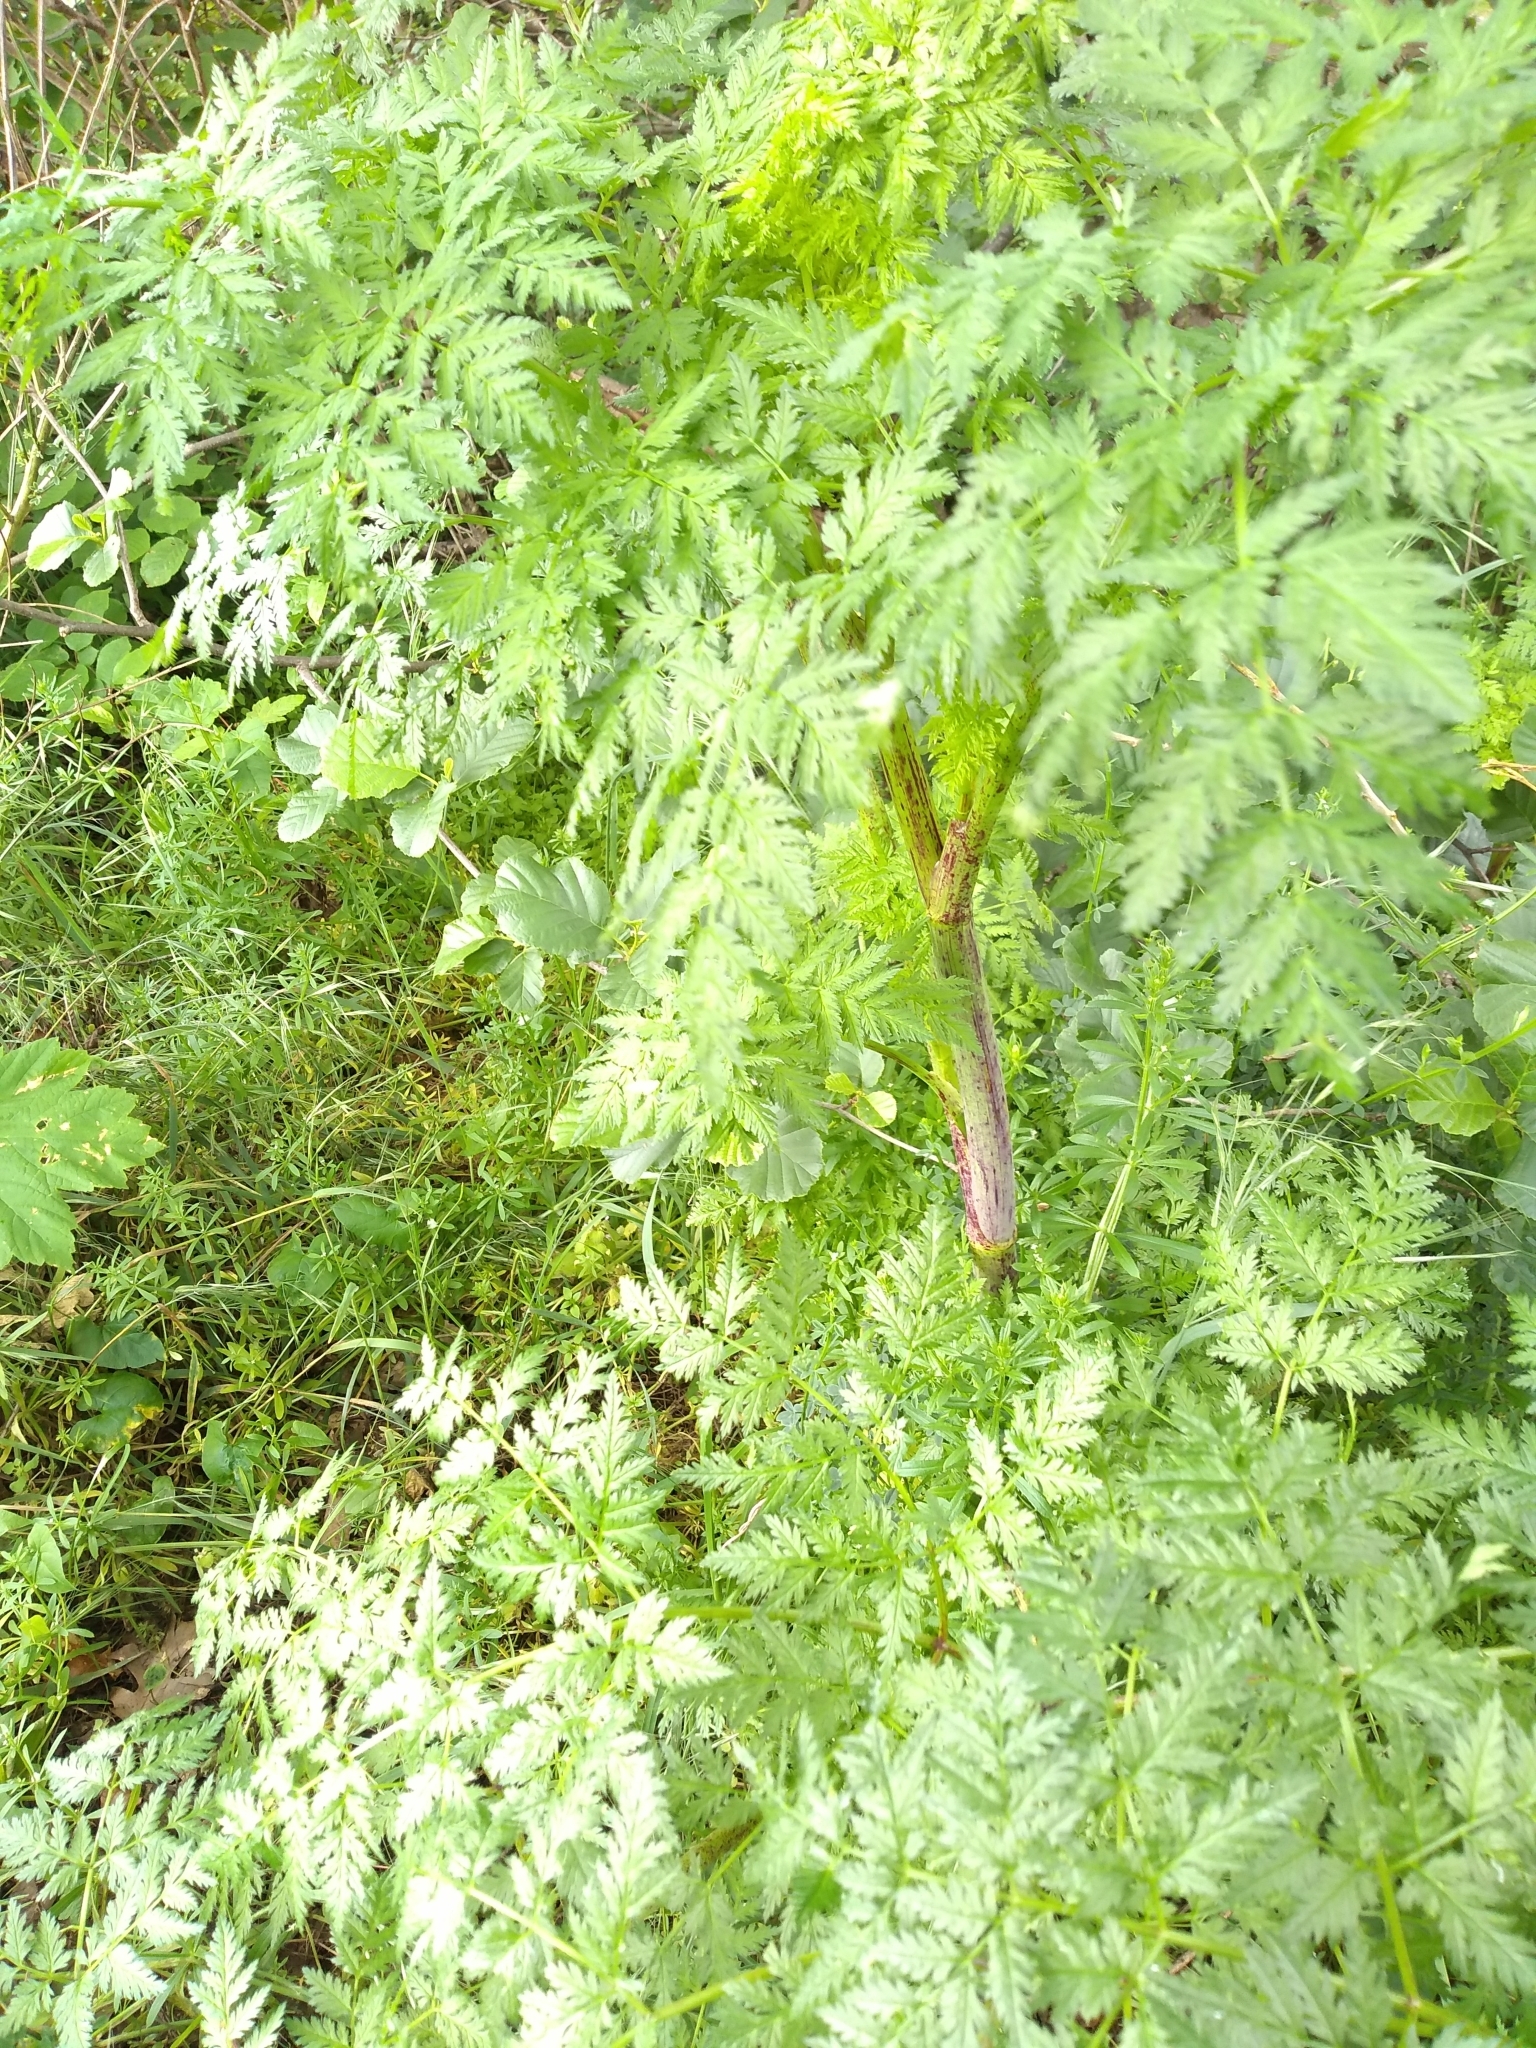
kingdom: Plantae
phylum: Tracheophyta
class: Magnoliopsida
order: Apiales
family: Apiaceae
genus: Conium
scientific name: Conium maculatum
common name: Hemlock
